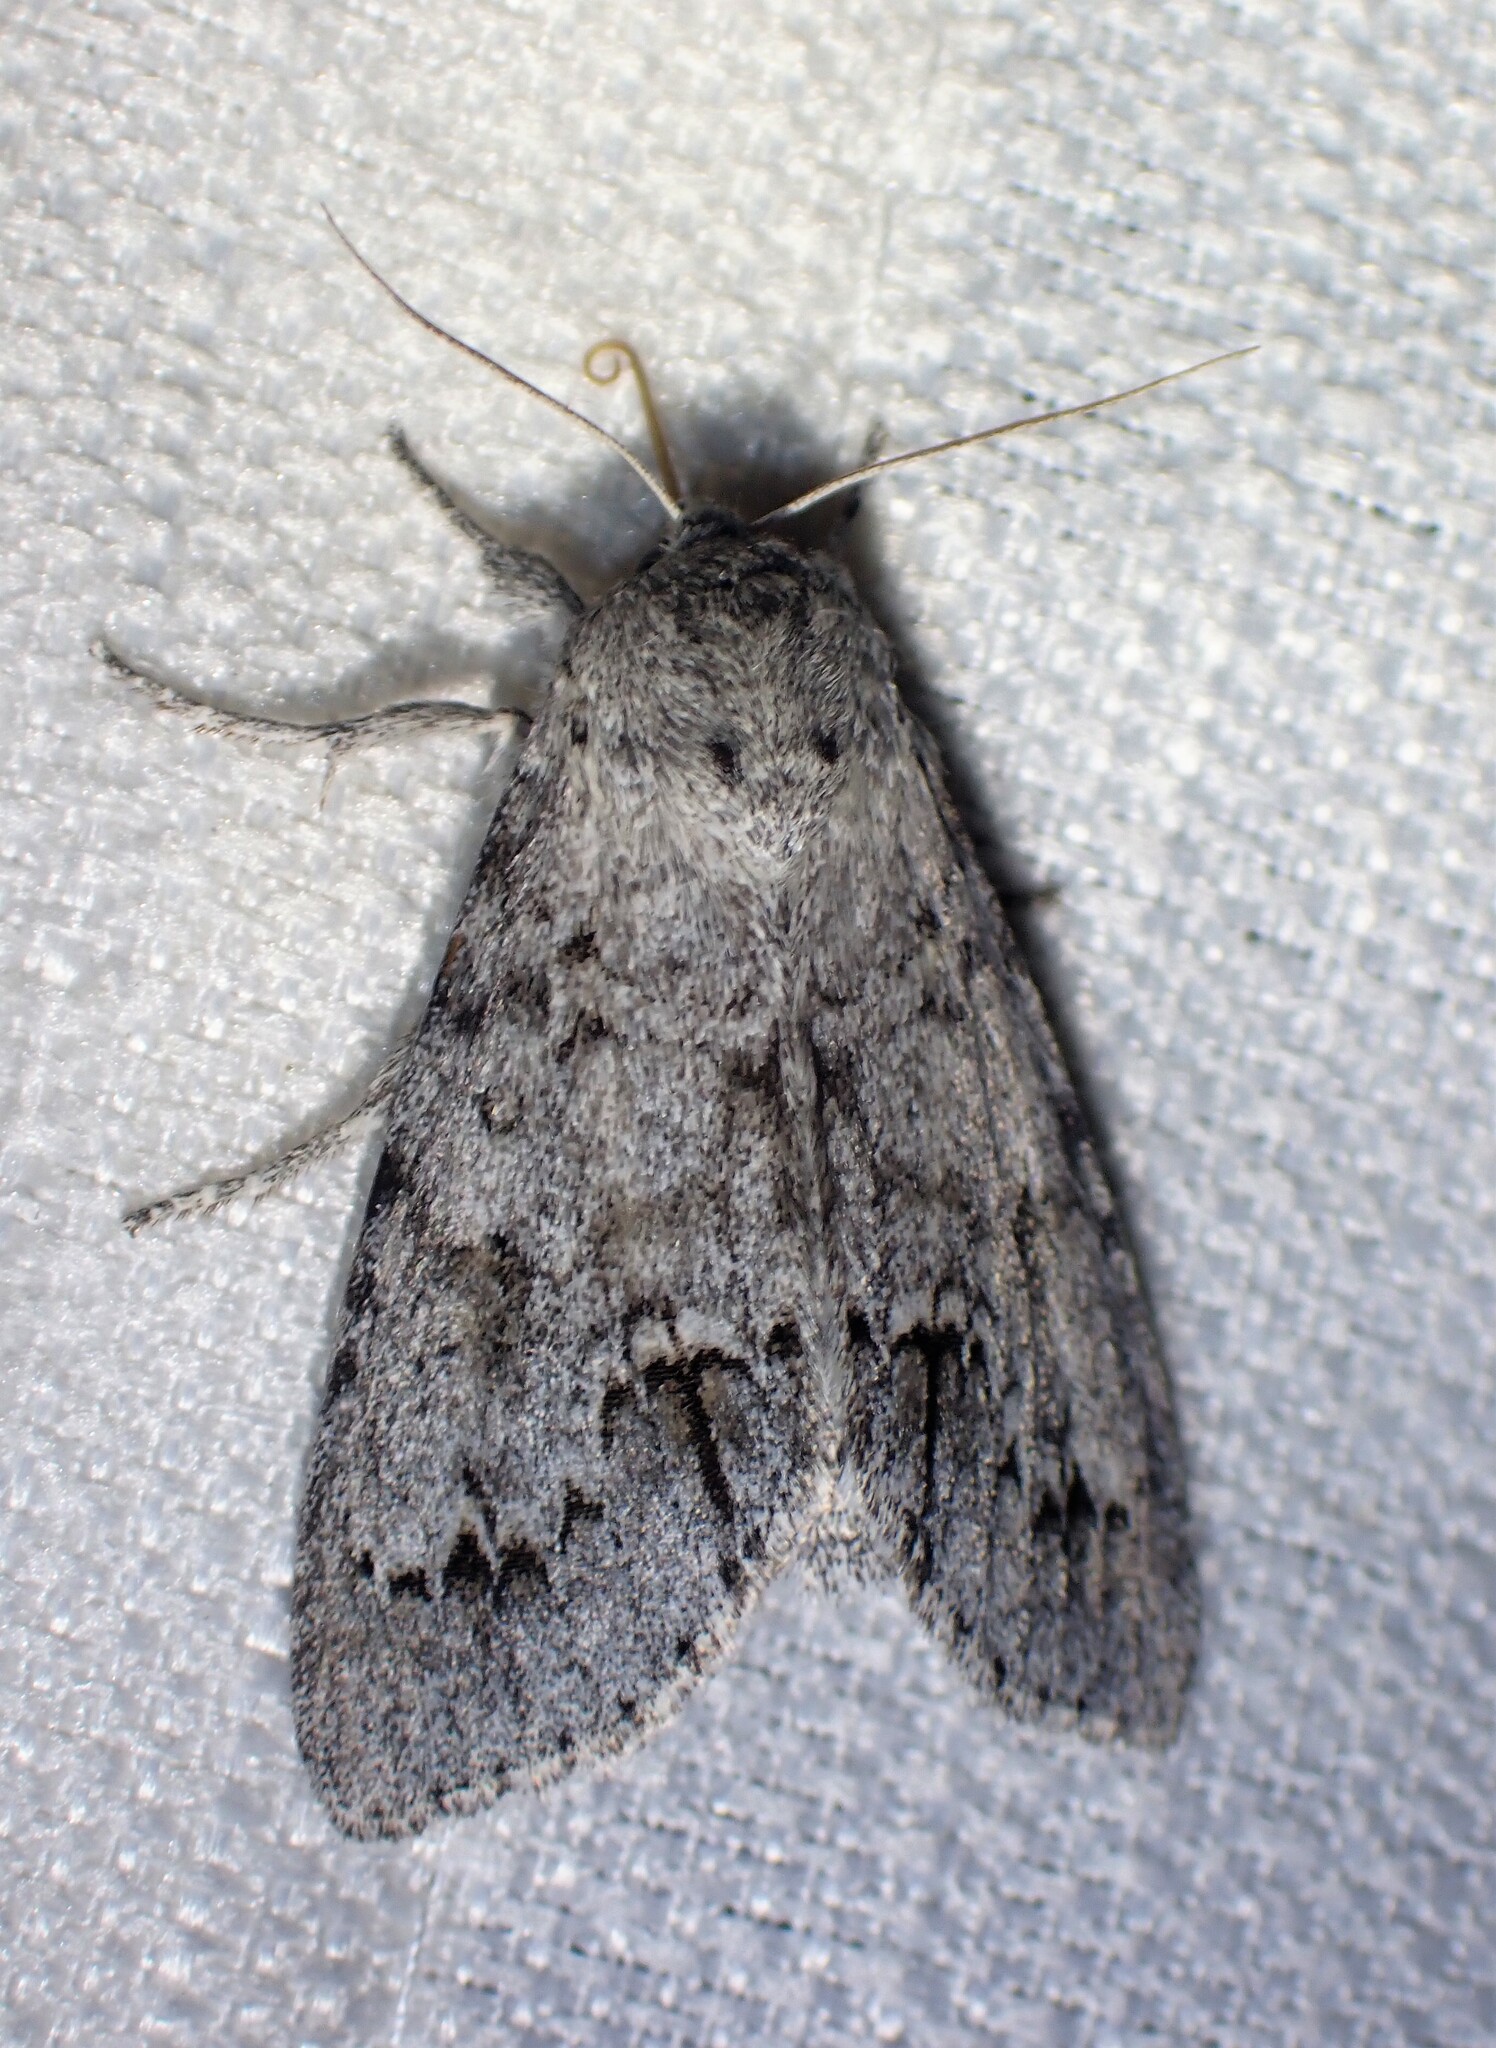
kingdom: Animalia
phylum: Arthropoda
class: Insecta
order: Lepidoptera
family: Noctuidae
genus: Acronicta
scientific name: Acronicta insita
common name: Large gray dagger
